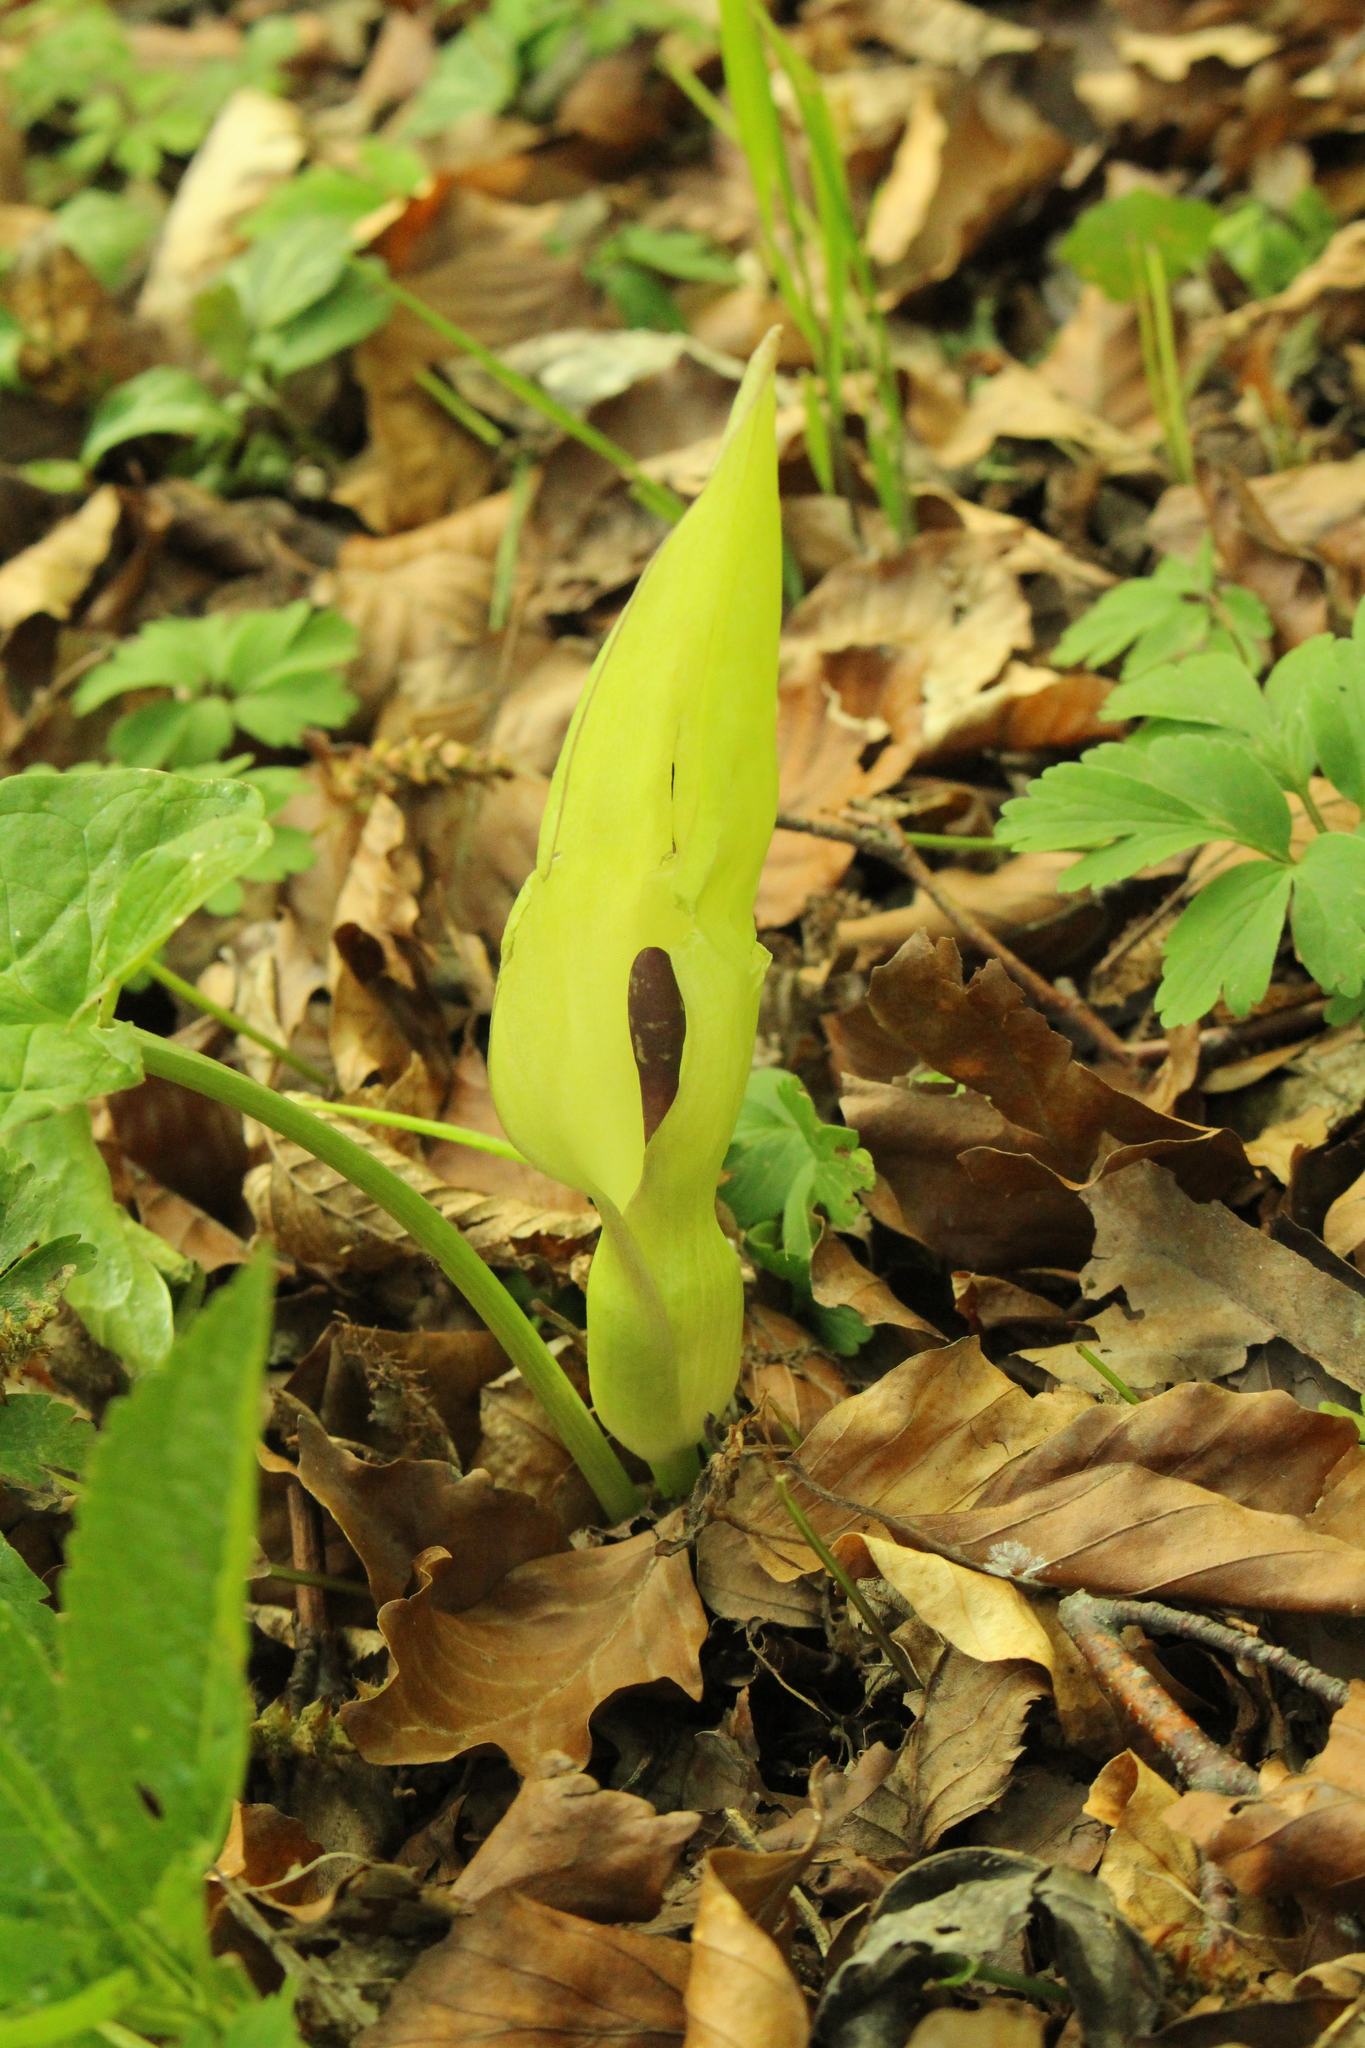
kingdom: Plantae
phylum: Tracheophyta
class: Liliopsida
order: Alismatales
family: Araceae
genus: Arum
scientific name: Arum maculatum
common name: Lords-and-ladies
